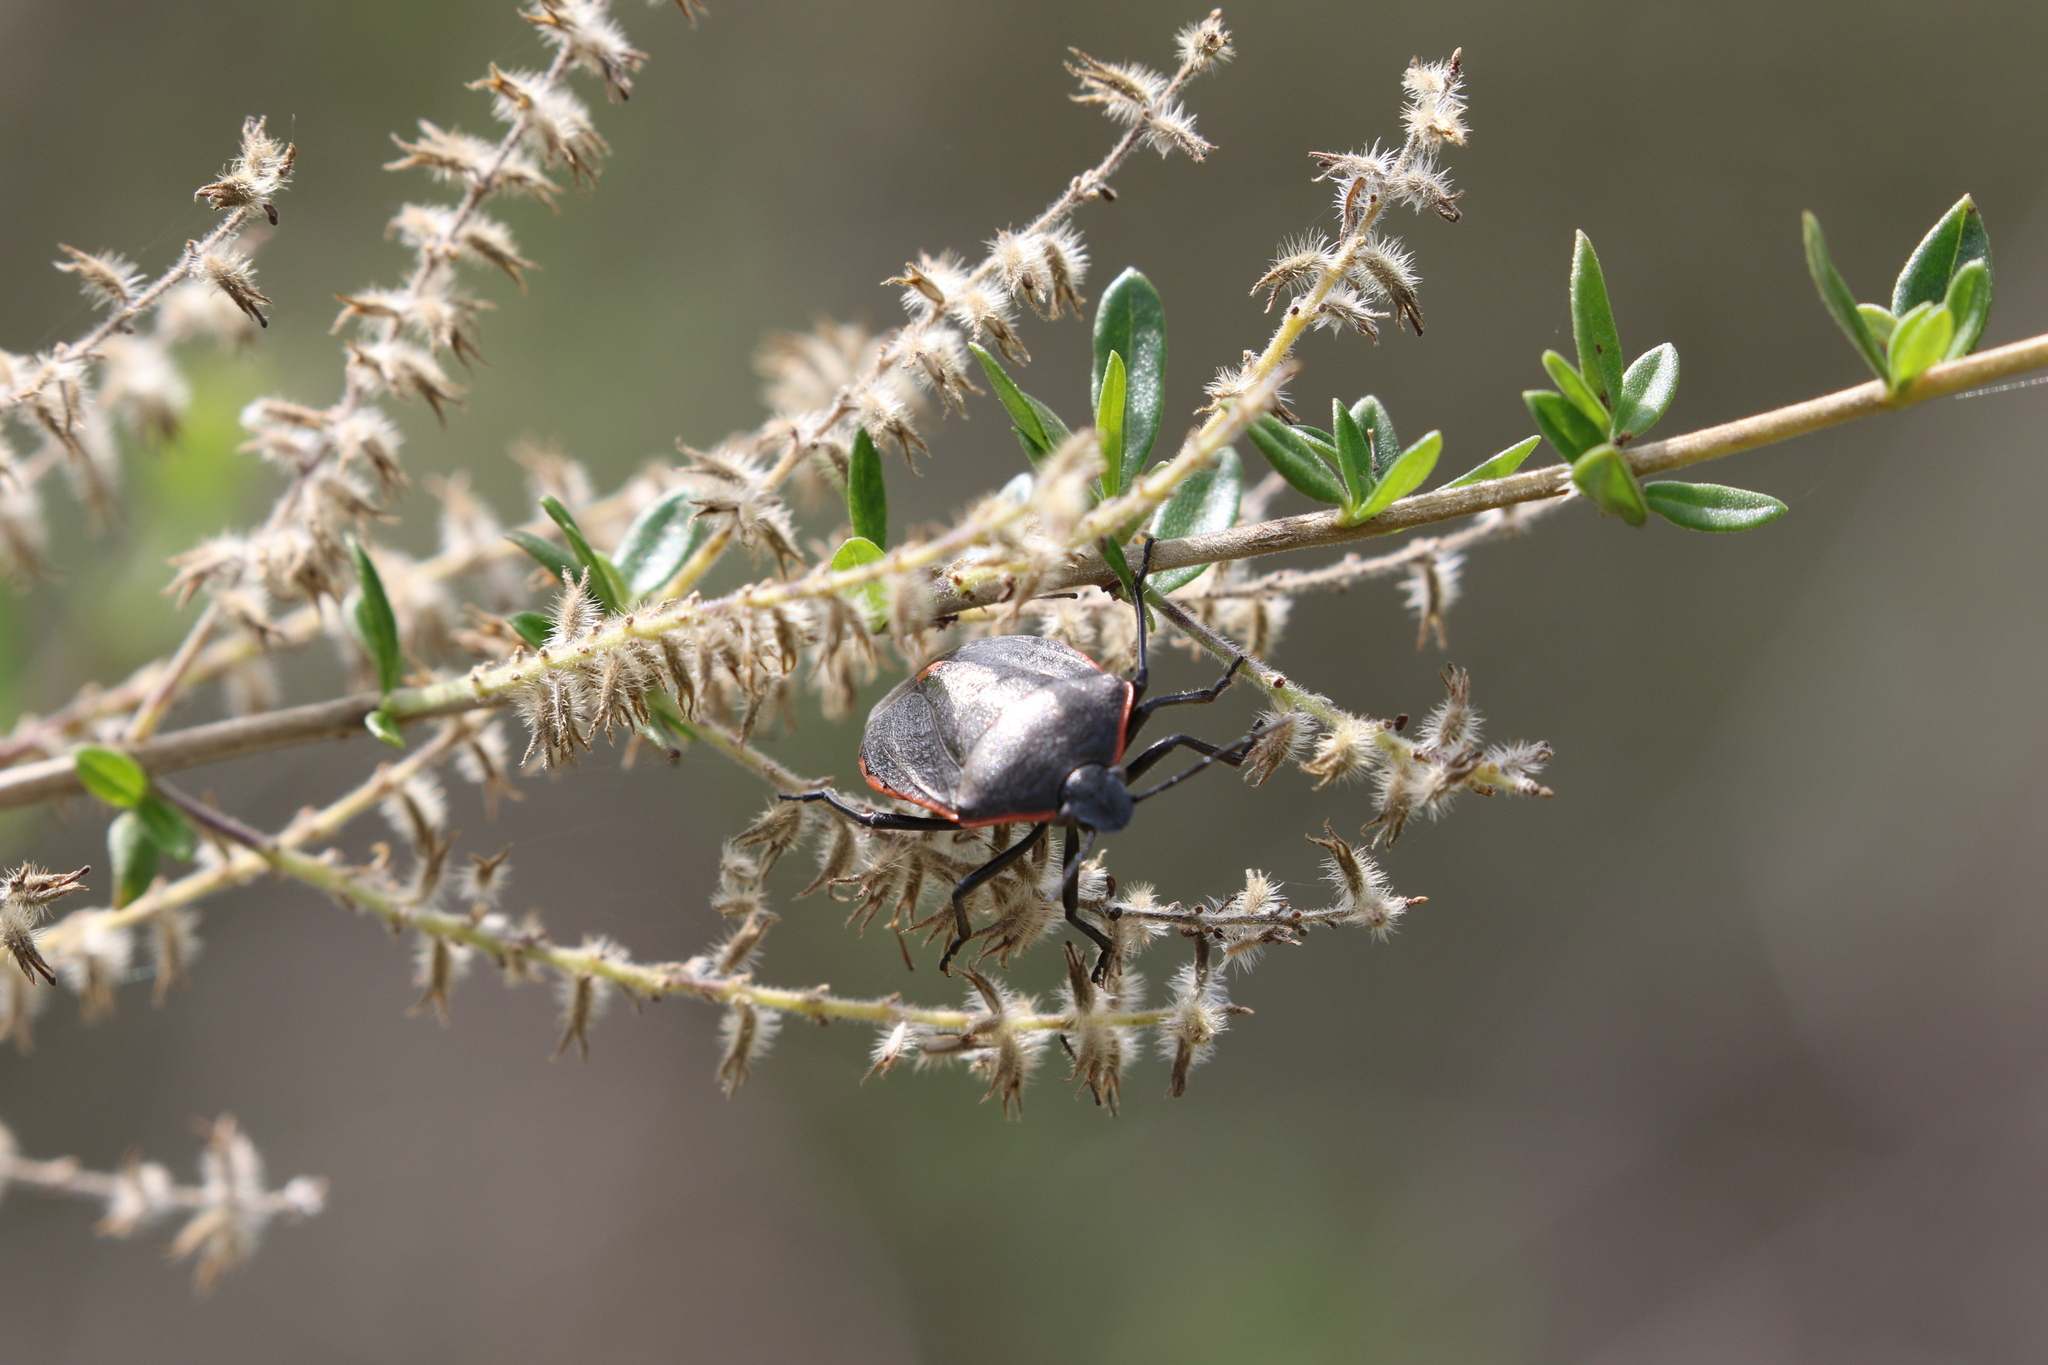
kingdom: Animalia
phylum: Arthropoda
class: Insecta
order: Hemiptera
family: Pentatomidae
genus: Chlorochroa
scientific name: Chlorochroa ligata
